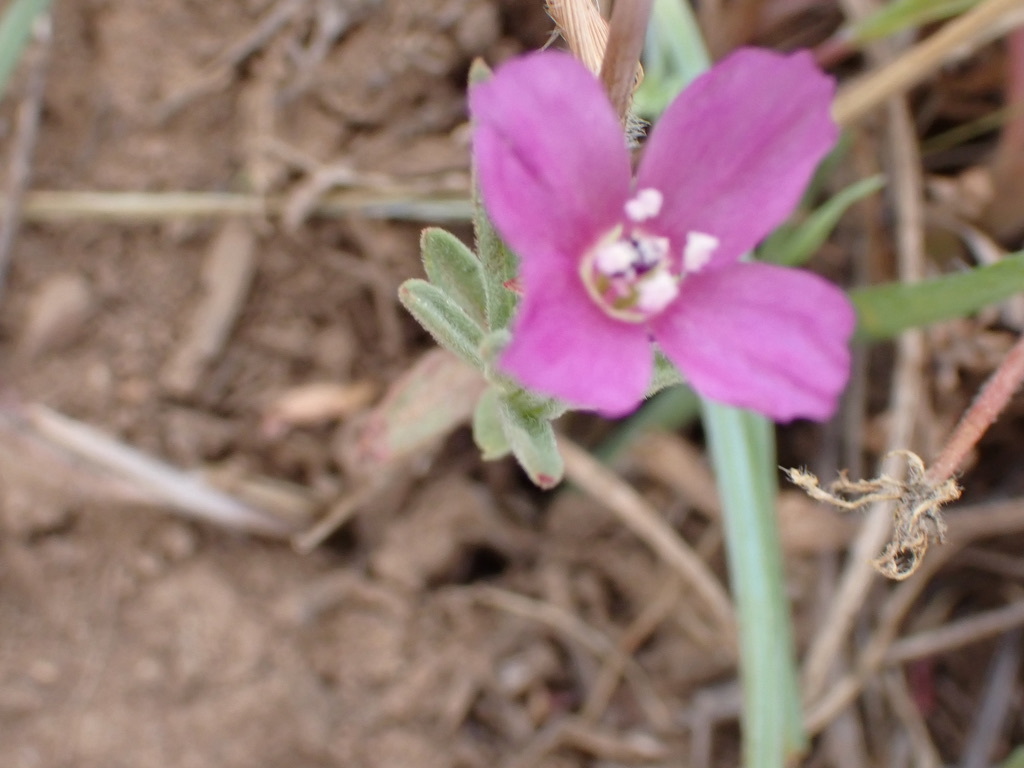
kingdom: Plantae
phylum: Tracheophyta
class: Magnoliopsida
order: Myrtales
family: Onagraceae
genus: Clarkia
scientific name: Clarkia purpurea
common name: Purple clarkia
